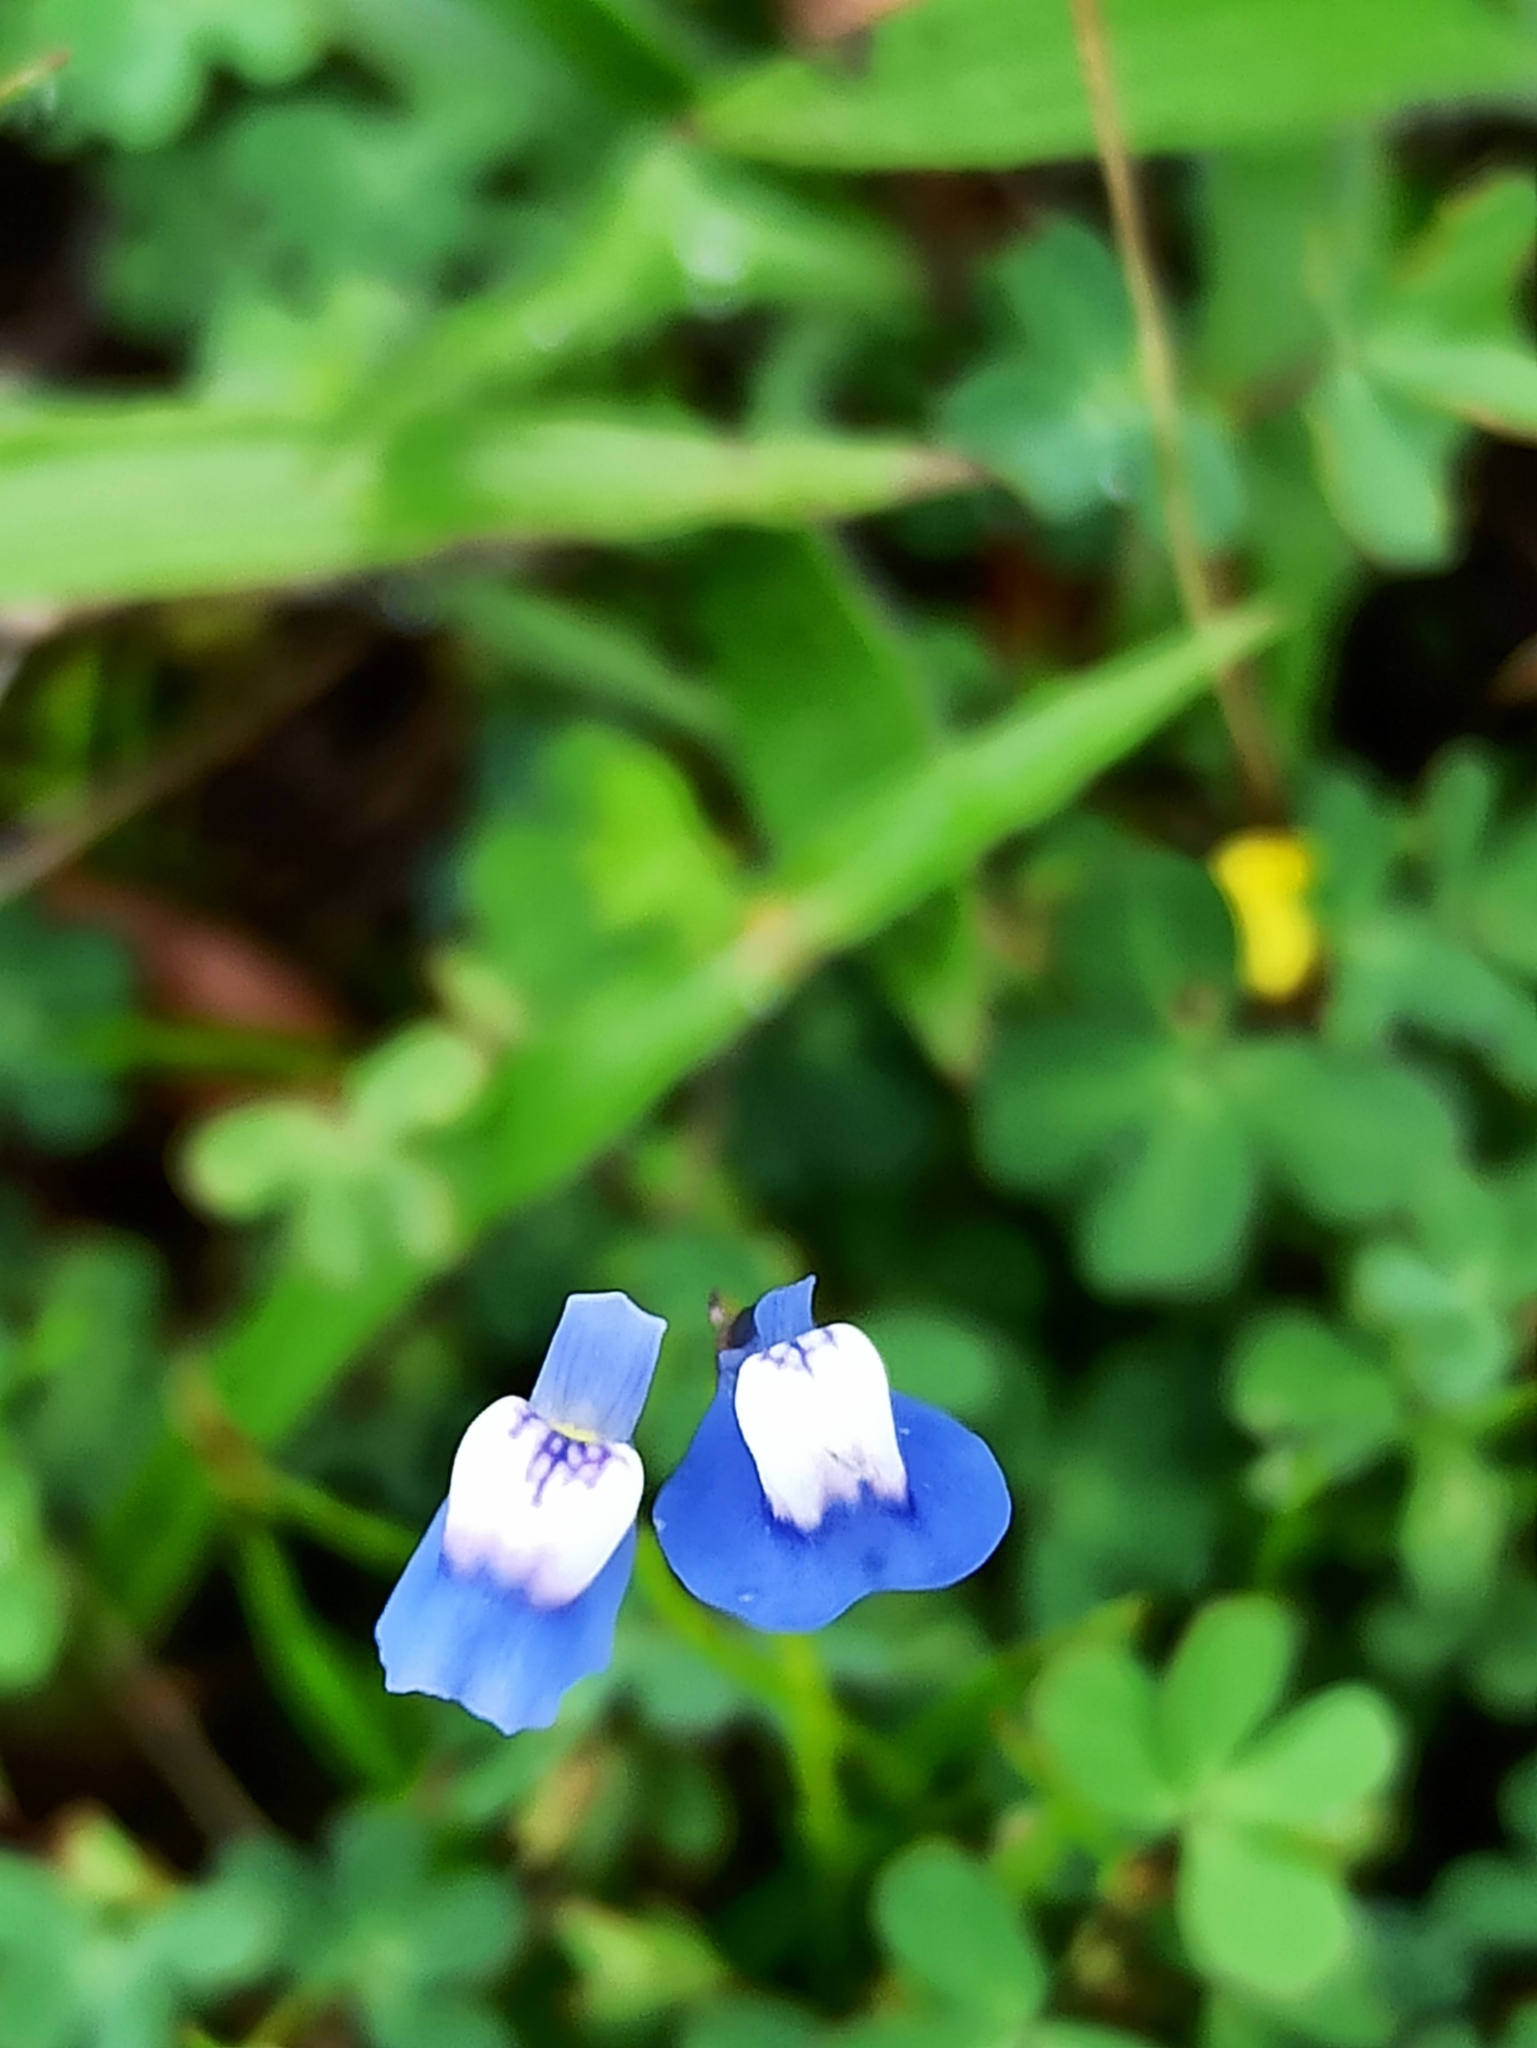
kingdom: Plantae
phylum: Tracheophyta
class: Magnoliopsida
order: Lamiales
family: Lentibulariaceae
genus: Utricularia
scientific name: Utricularia lazulina
